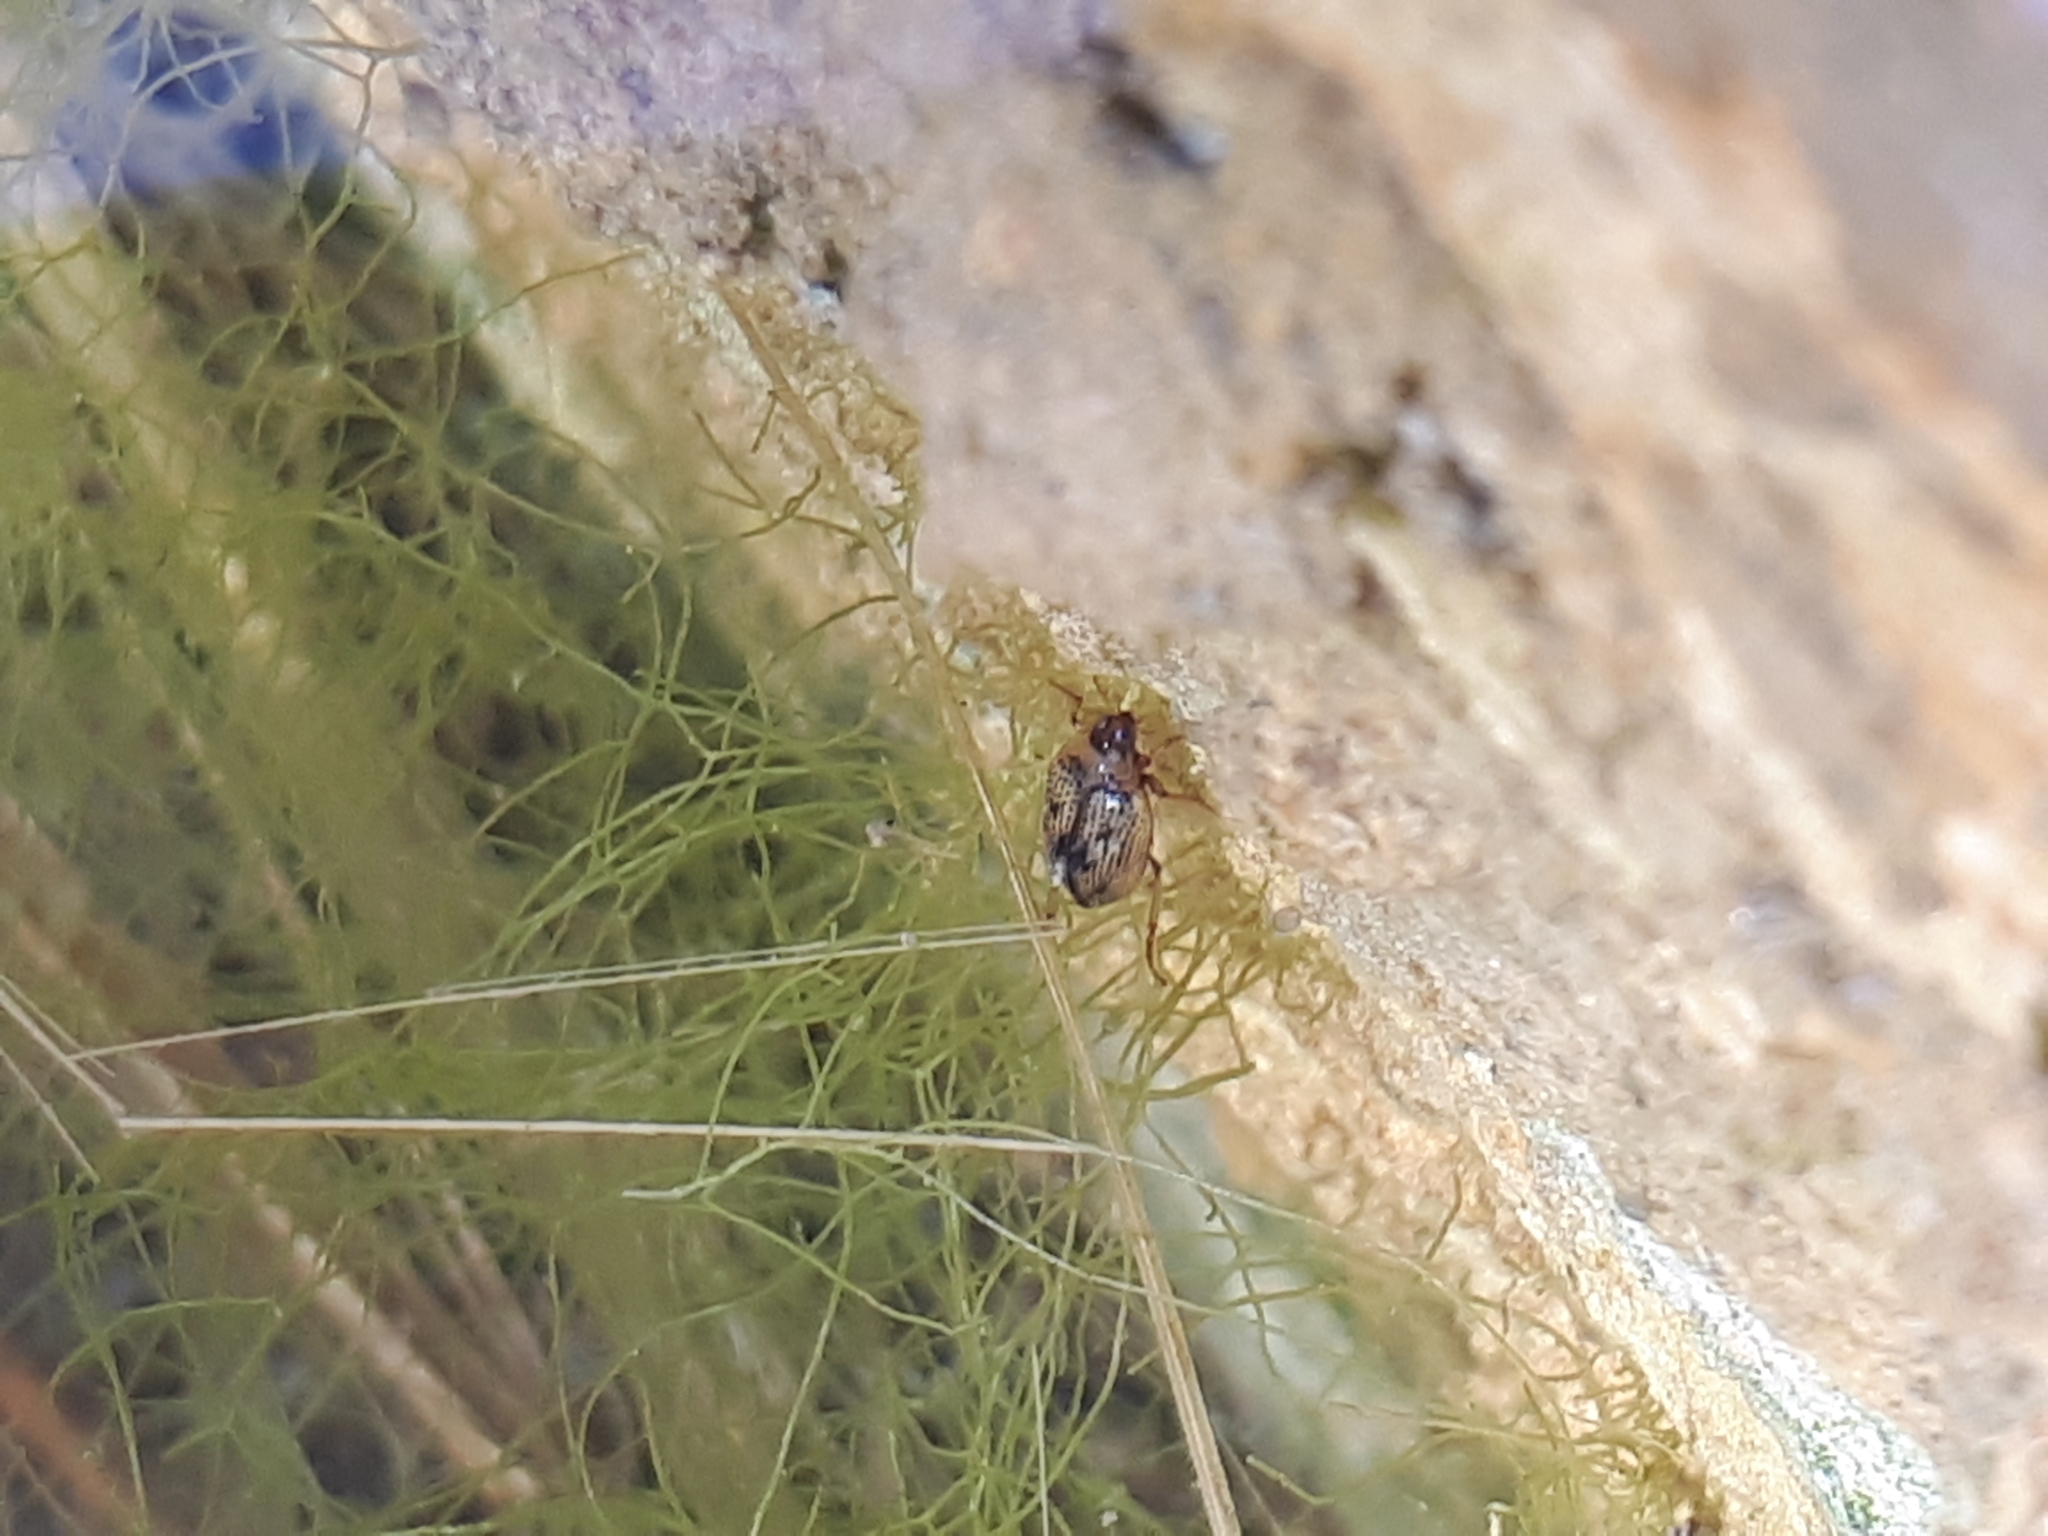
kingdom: Animalia
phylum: Arthropoda
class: Insecta
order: Coleoptera
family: Haliplidae
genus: Peltodytes
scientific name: Peltodytes caesus
